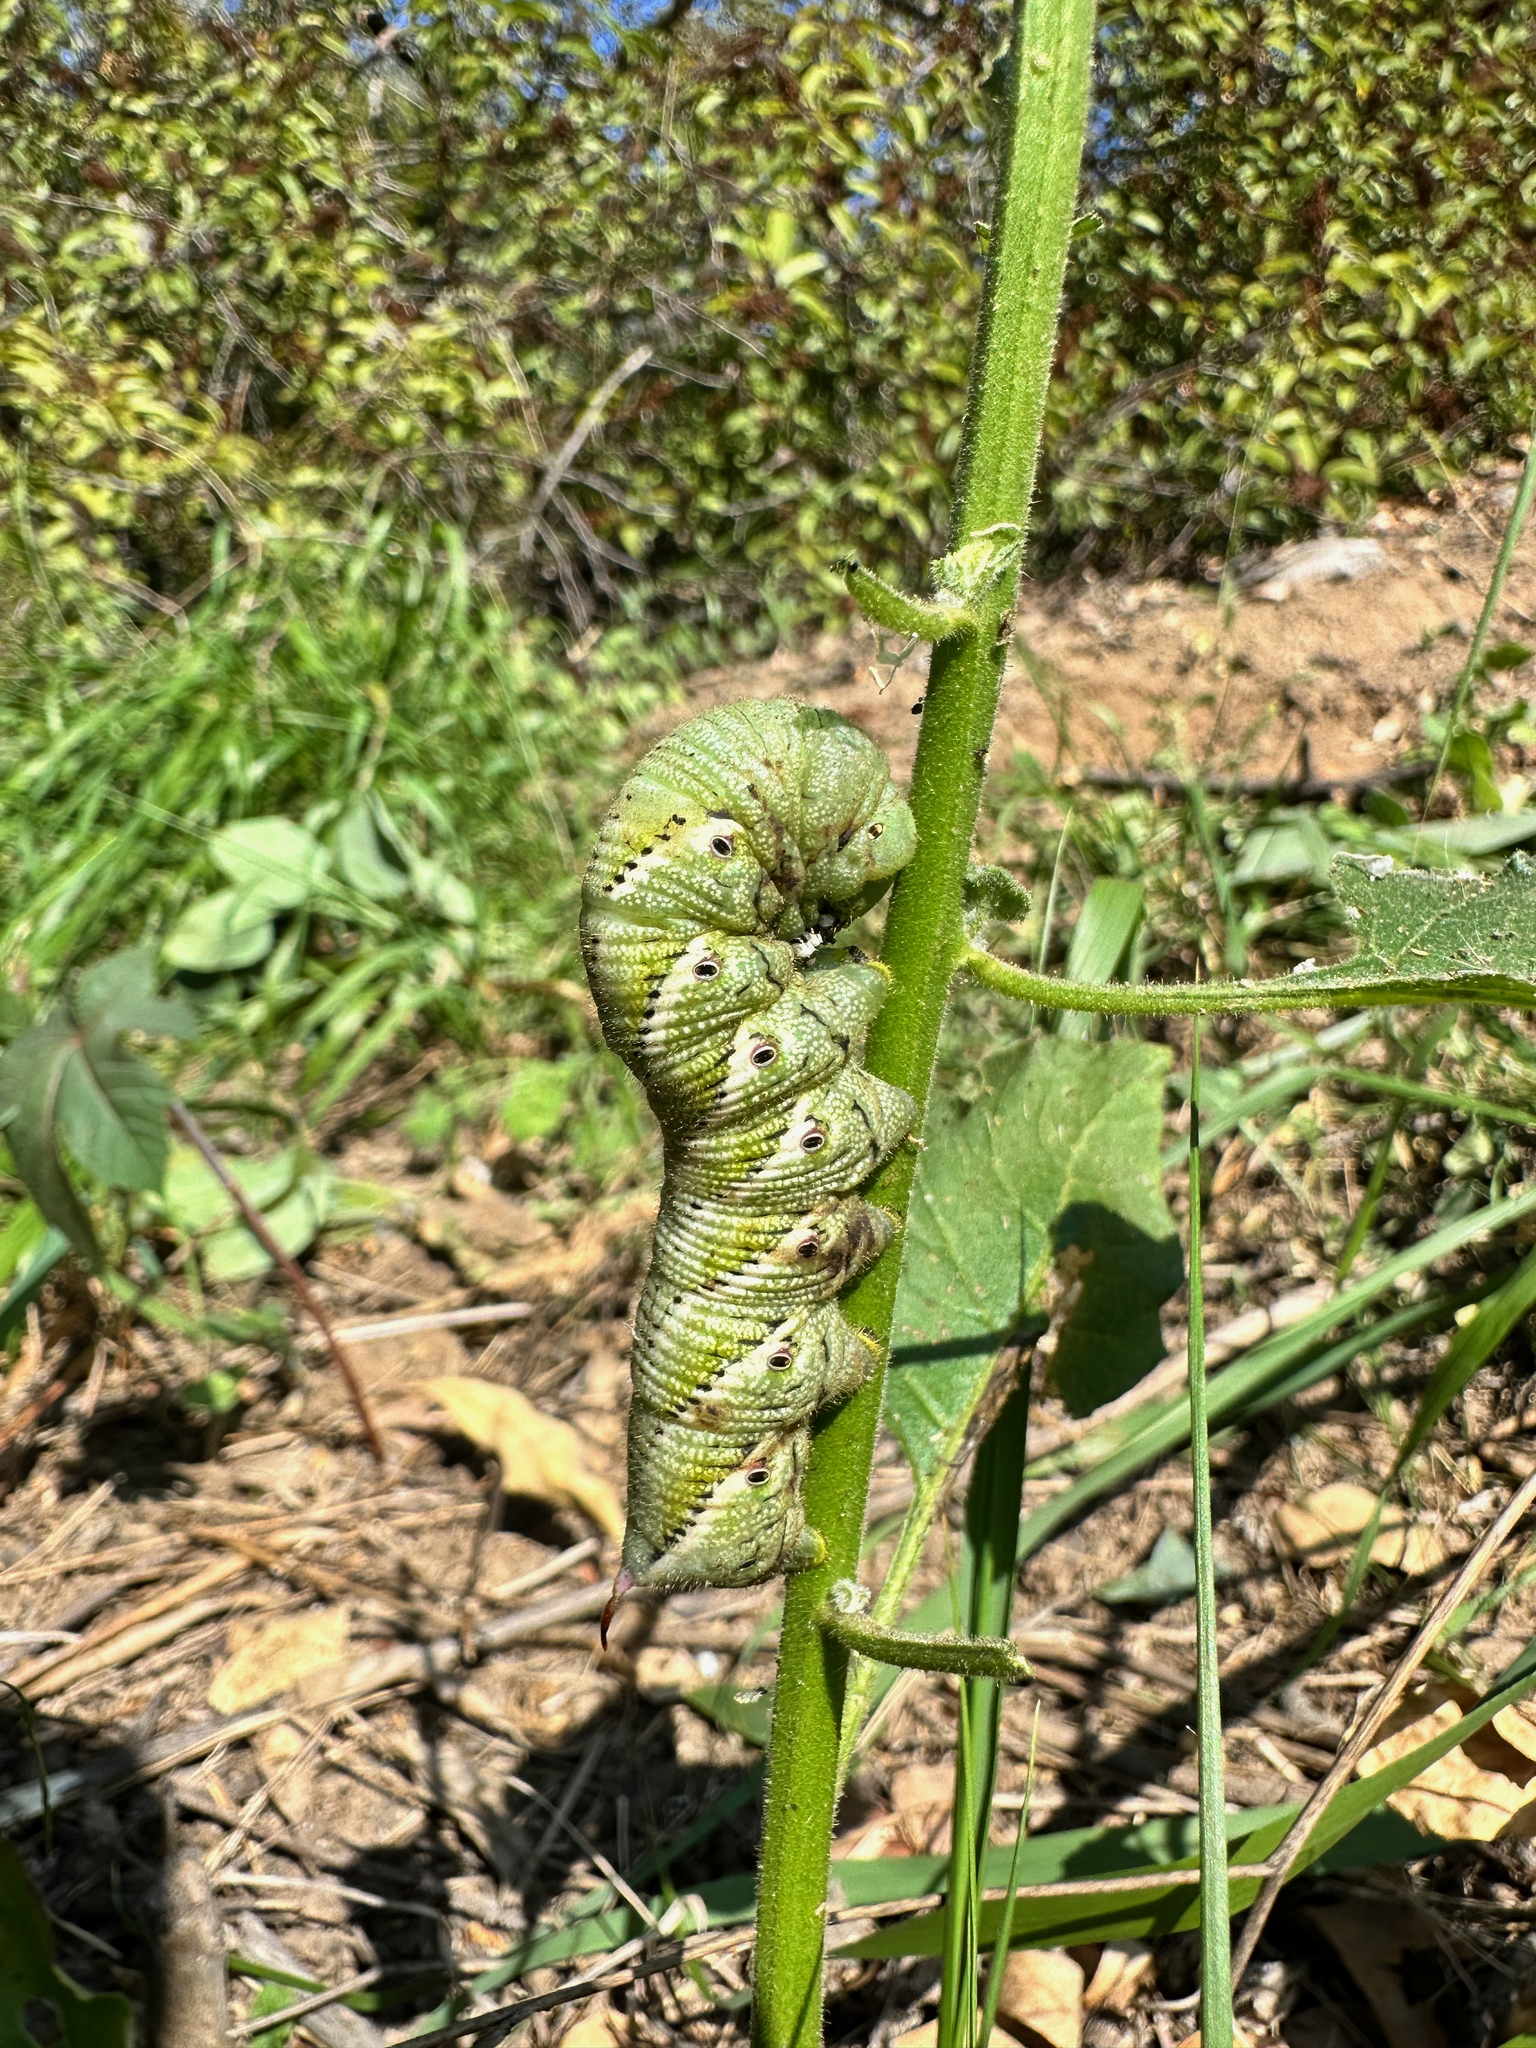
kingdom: Animalia
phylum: Arthropoda
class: Insecta
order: Lepidoptera
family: Sphingidae
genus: Manduca
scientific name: Manduca sexta
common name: Carolina sphinx
